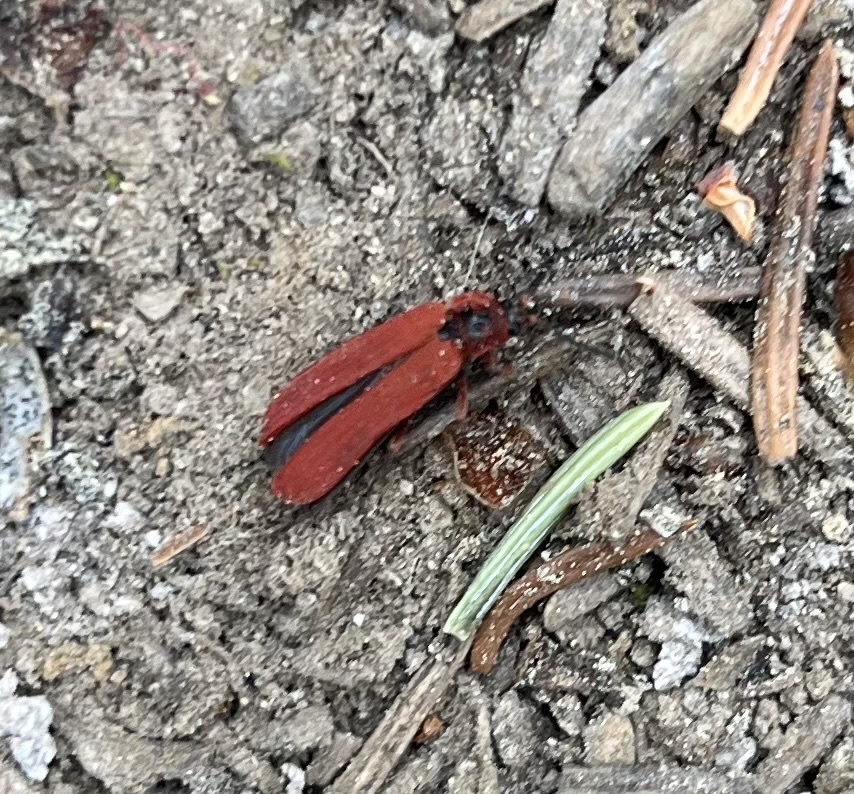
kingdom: Animalia
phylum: Arthropoda
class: Insecta
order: Coleoptera
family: Lycidae
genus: Dictyoptera
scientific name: Dictyoptera simplicipes
